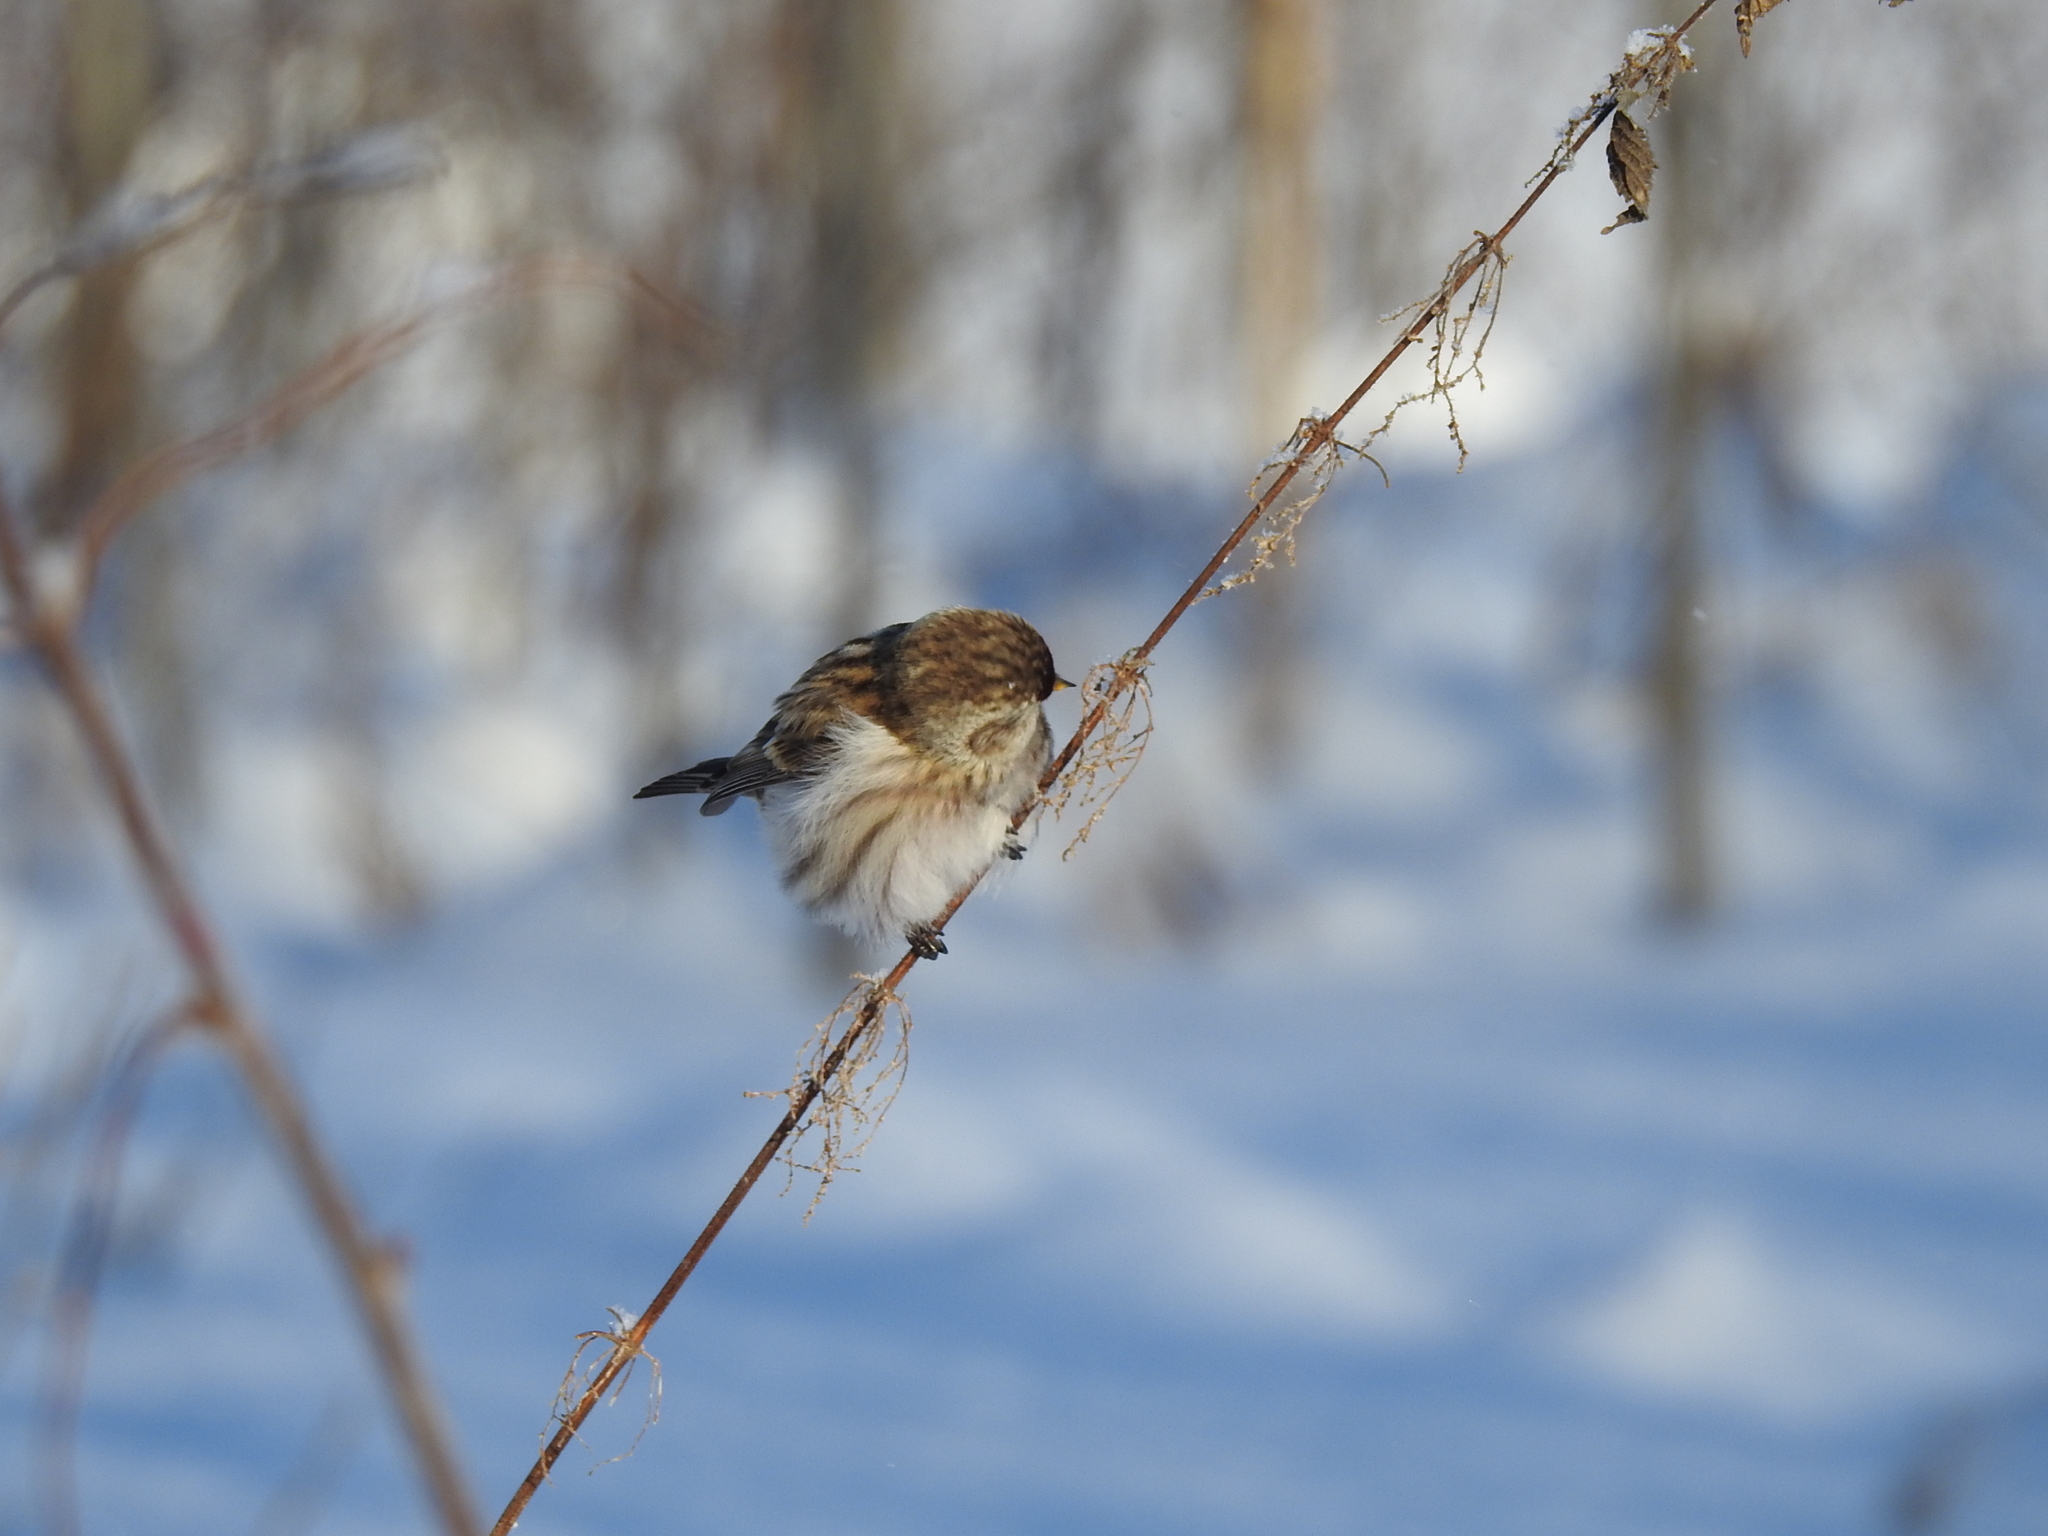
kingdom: Animalia
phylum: Chordata
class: Aves
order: Passeriformes
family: Fringillidae
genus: Acanthis
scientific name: Acanthis flammea
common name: Common redpoll
